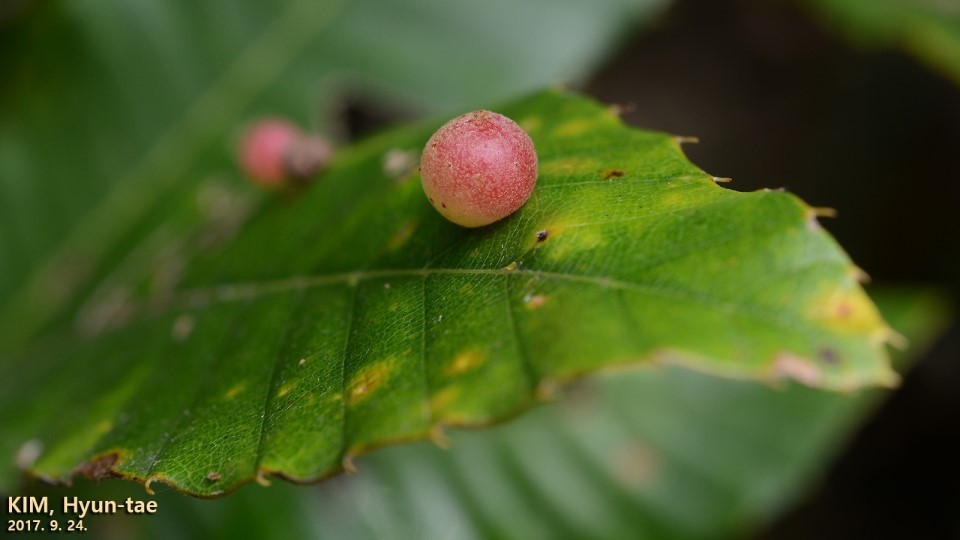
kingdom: Animalia
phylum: Arthropoda
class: Insecta
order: Hymenoptera
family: Cynipidae
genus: Trichagalma
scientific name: Trichagalma
